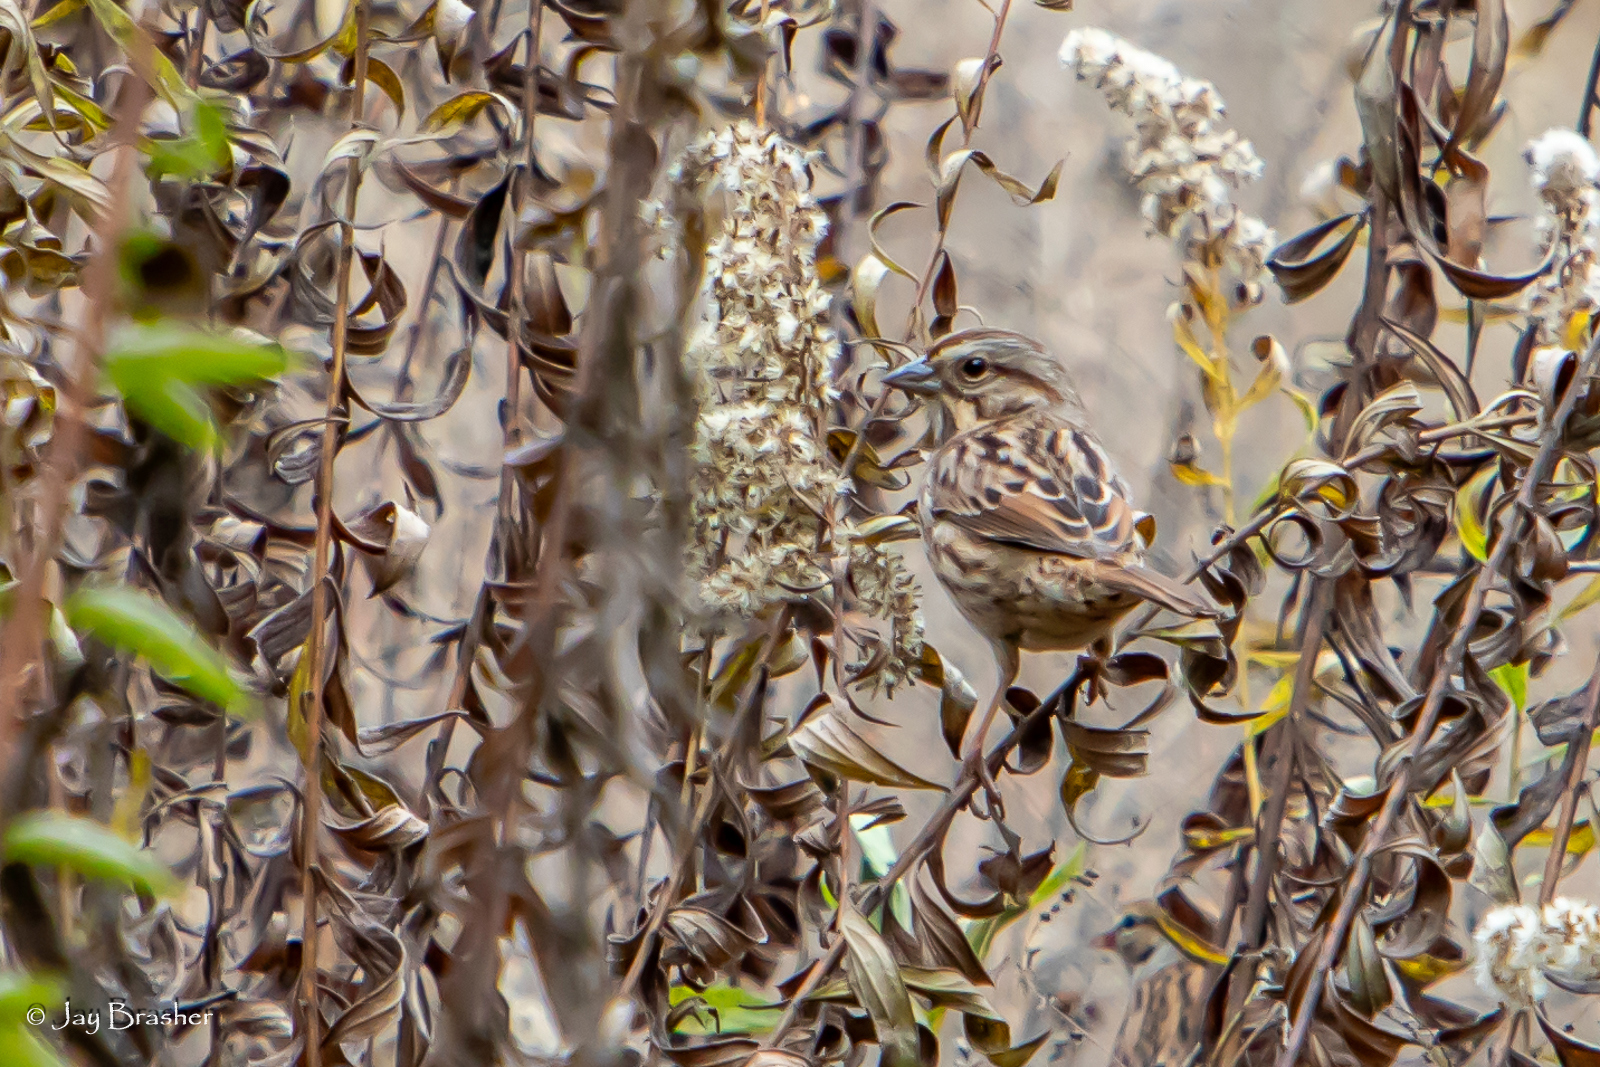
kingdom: Animalia
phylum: Chordata
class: Aves
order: Passeriformes
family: Passerellidae
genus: Melospiza
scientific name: Melospiza melodia
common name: Song sparrow
